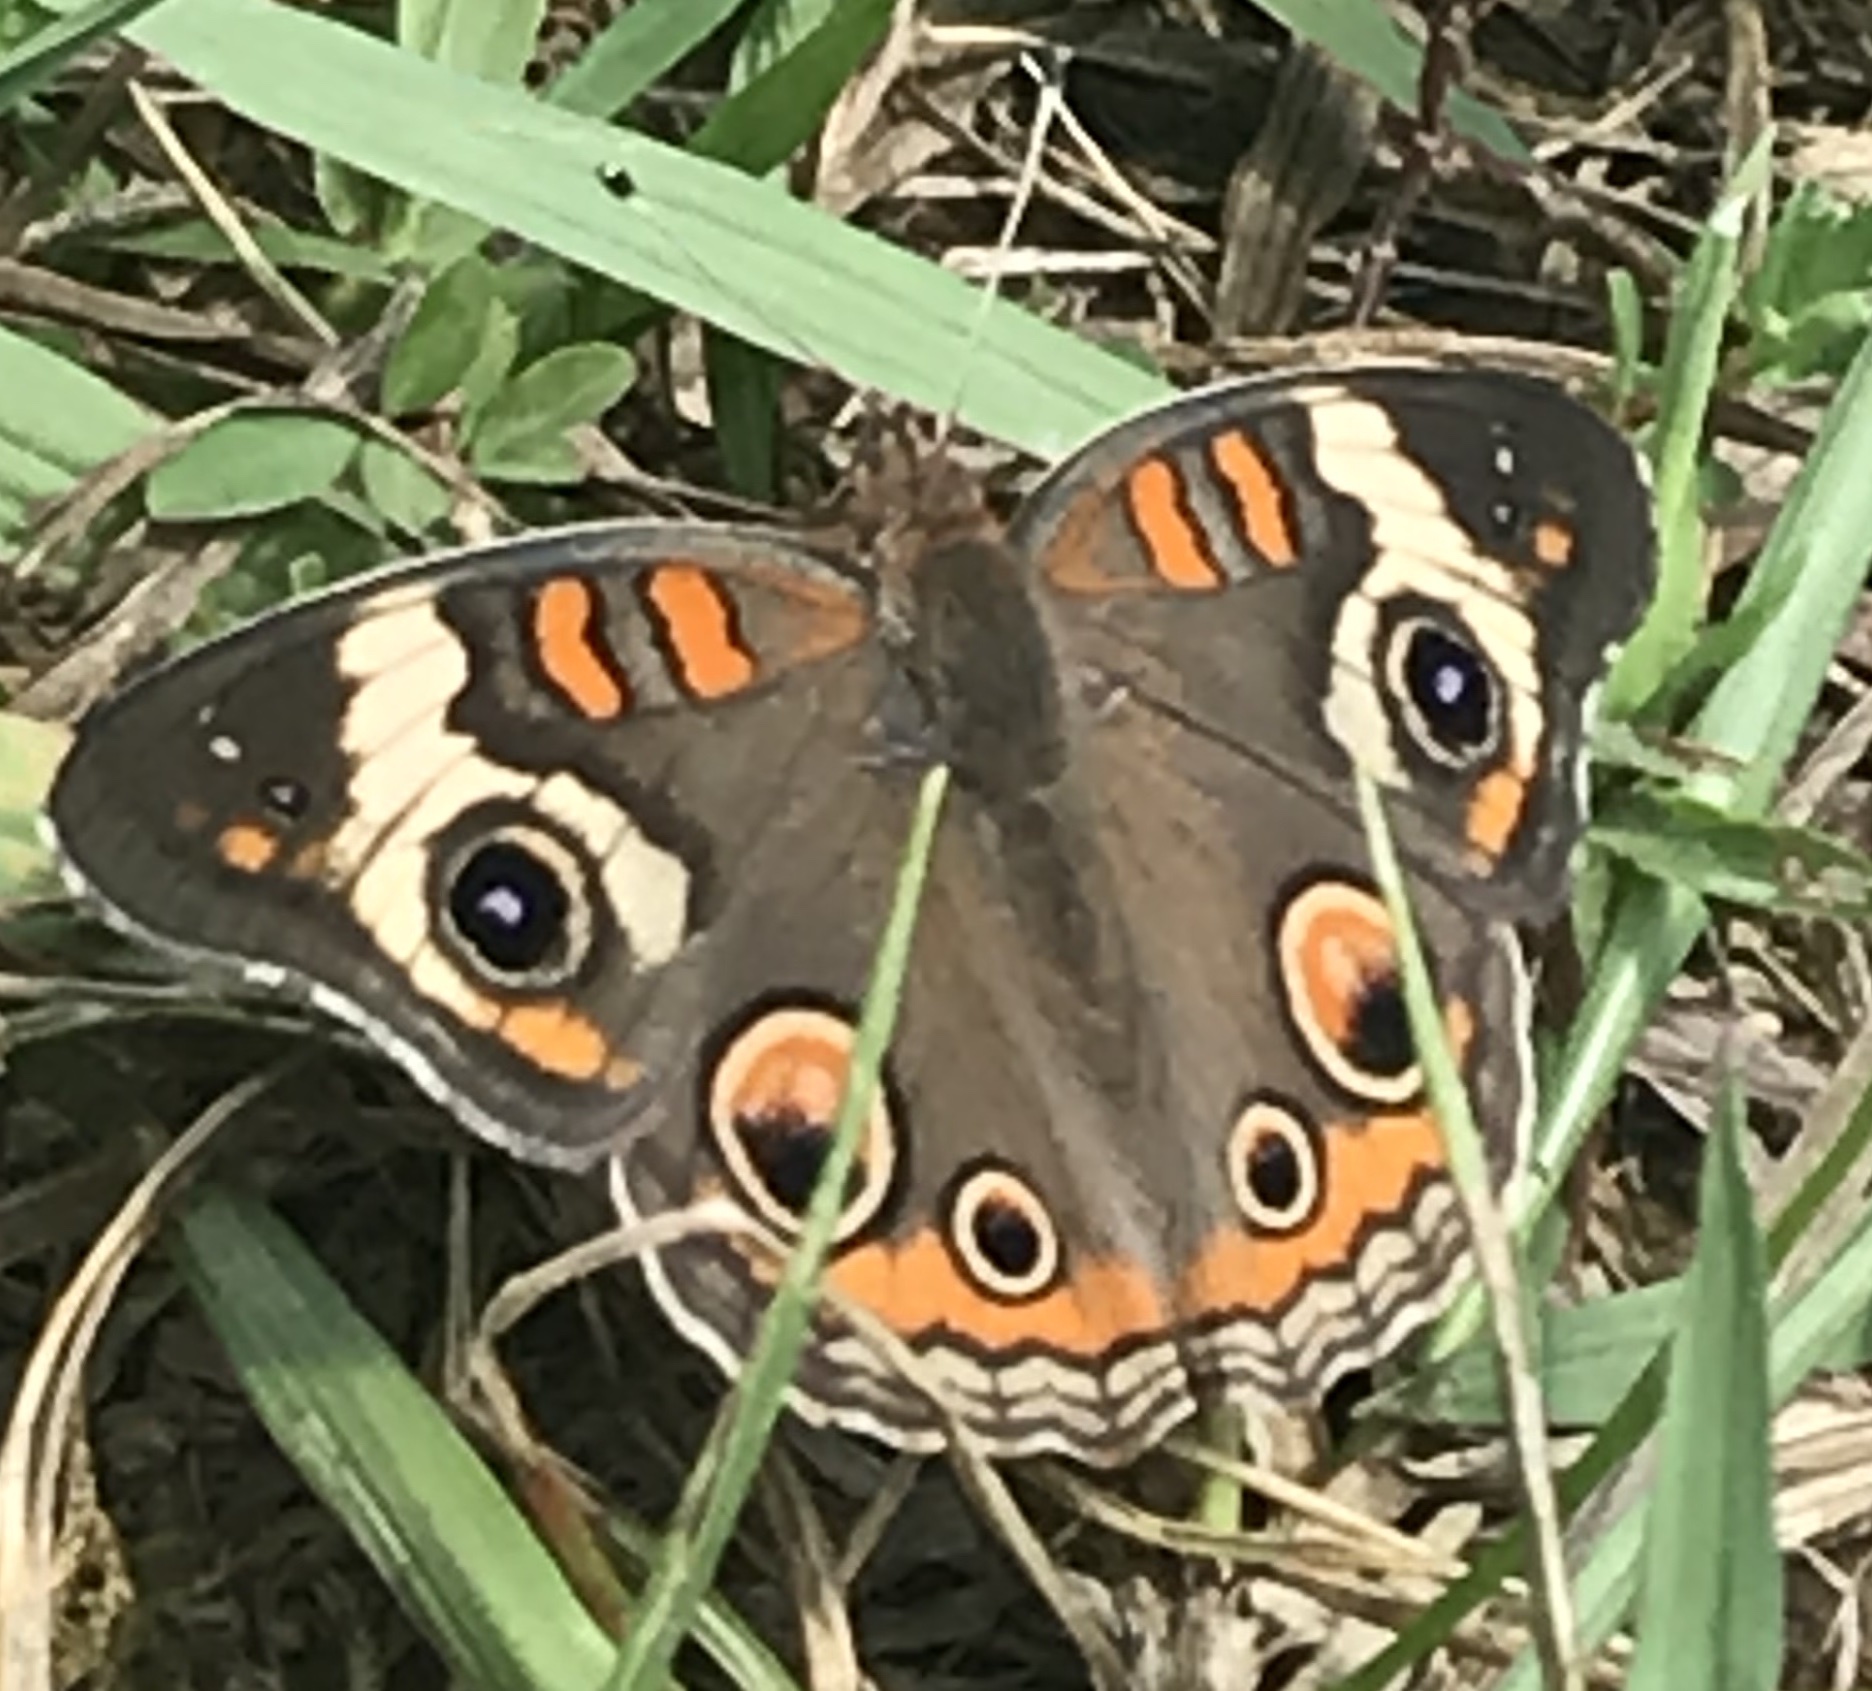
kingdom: Animalia
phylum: Arthropoda
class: Insecta
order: Lepidoptera
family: Nymphalidae
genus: Junonia
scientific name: Junonia coenia
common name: Common buckeye
